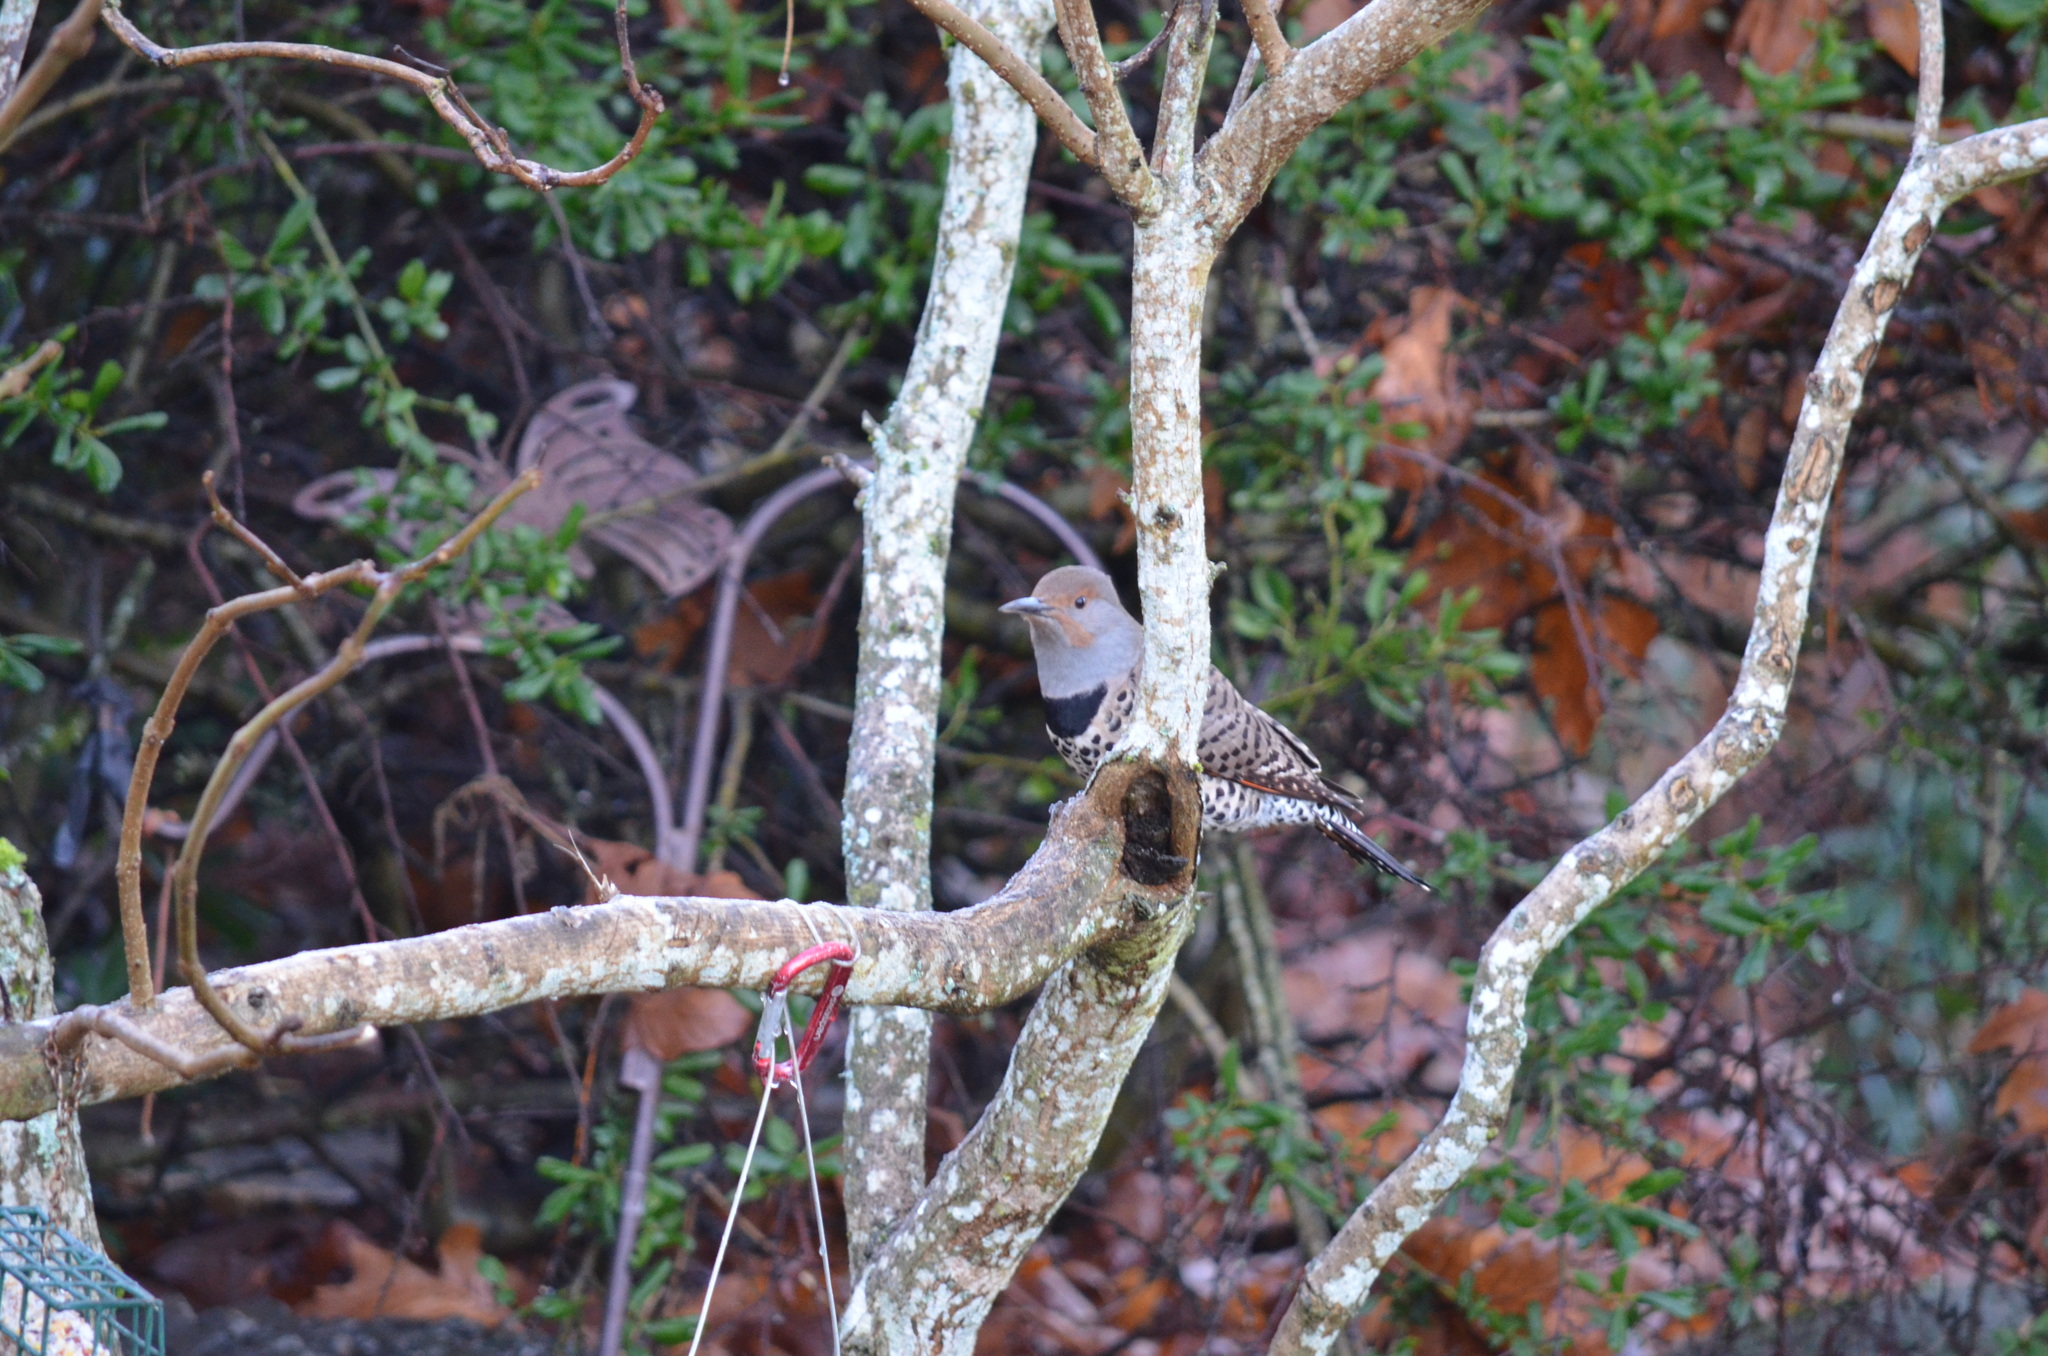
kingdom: Animalia
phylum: Chordata
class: Aves
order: Piciformes
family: Picidae
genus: Colaptes
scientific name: Colaptes auratus
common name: Northern flicker
